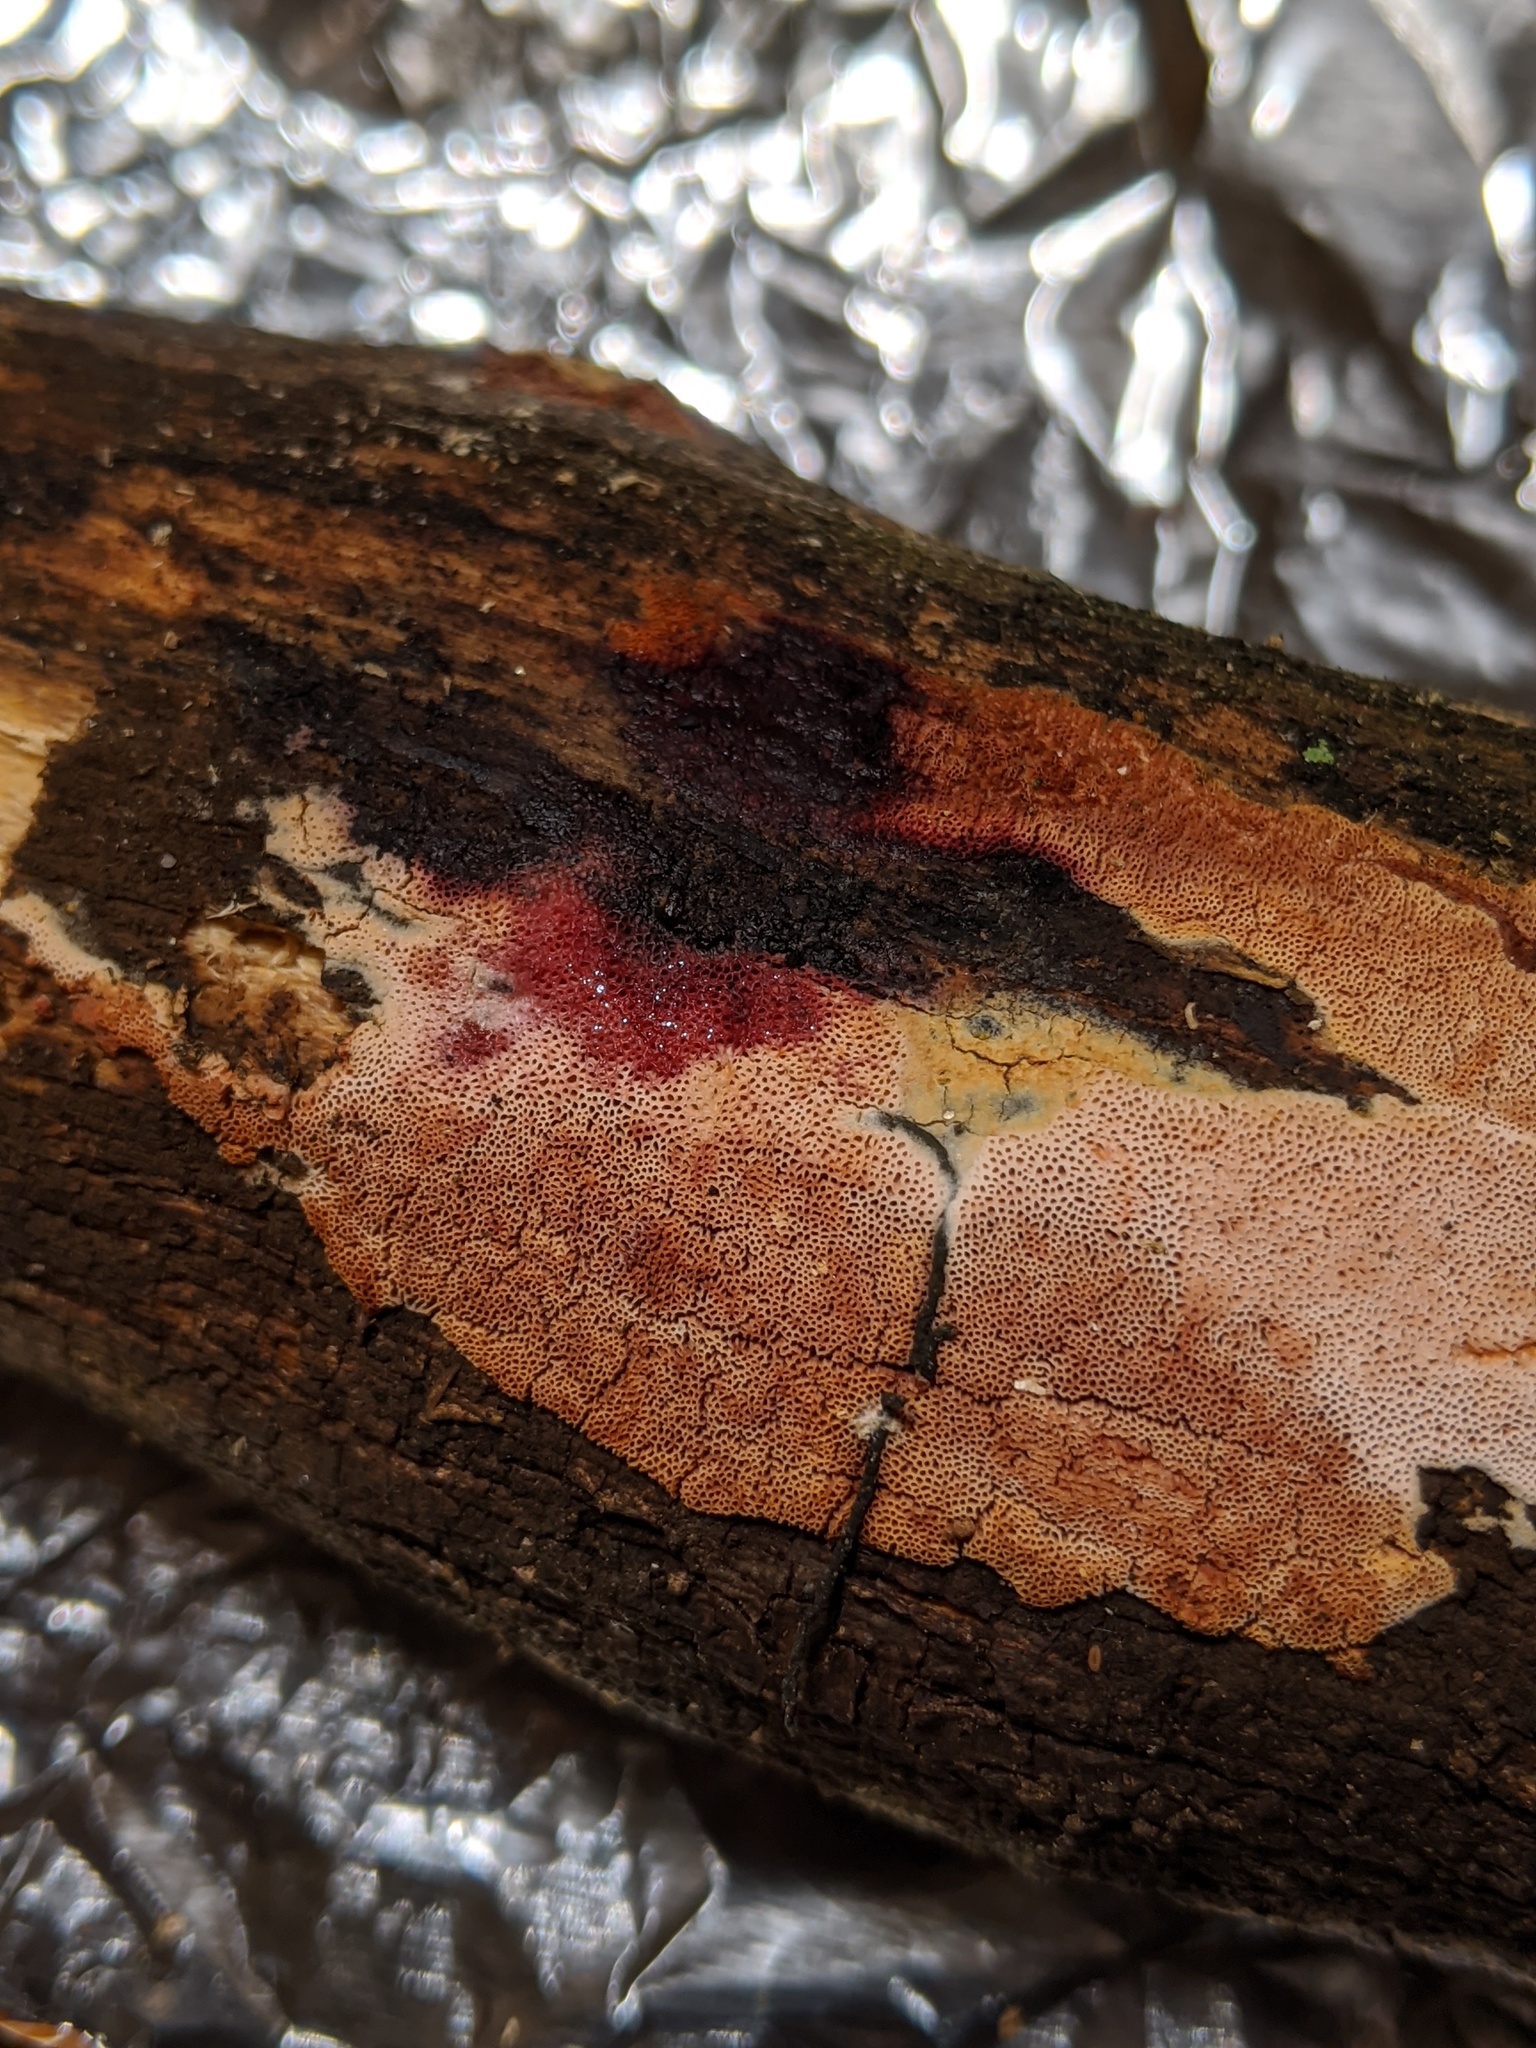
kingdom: Fungi
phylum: Basidiomycota
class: Agaricomycetes
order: Polyporales
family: Irpicaceae
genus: Ceriporia
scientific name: Ceriporia purpurea
